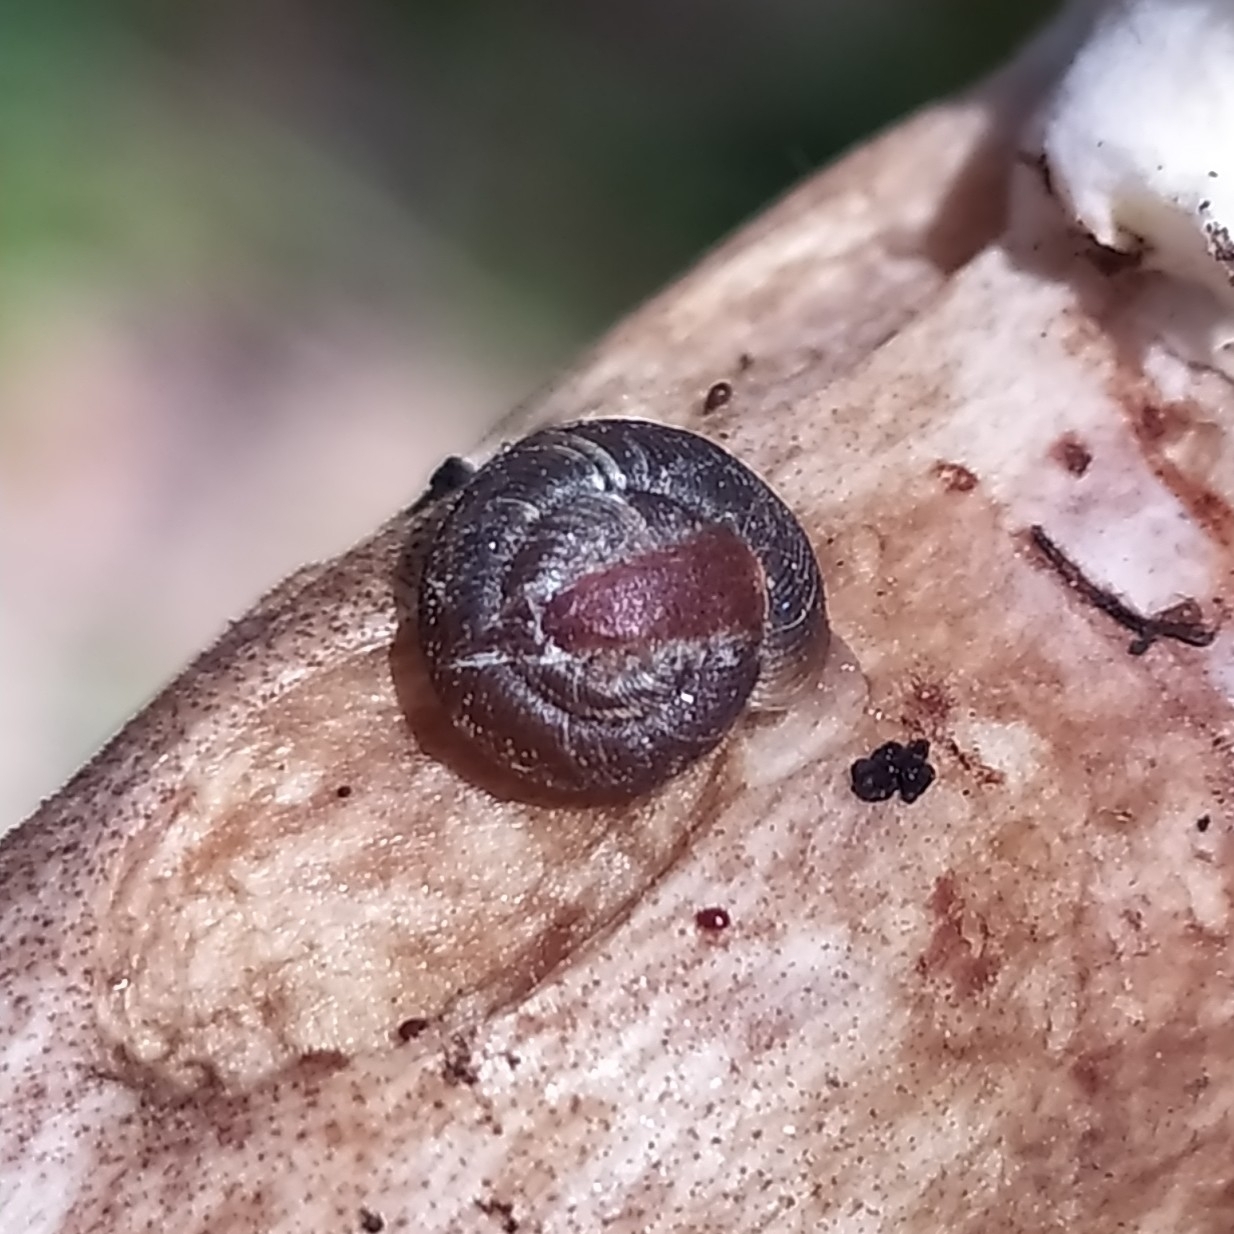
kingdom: Animalia
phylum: Mollusca
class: Gastropoda
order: Stylommatophora
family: Discidae
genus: Discus
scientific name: Discus ruderatus
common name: Brown disc snail
